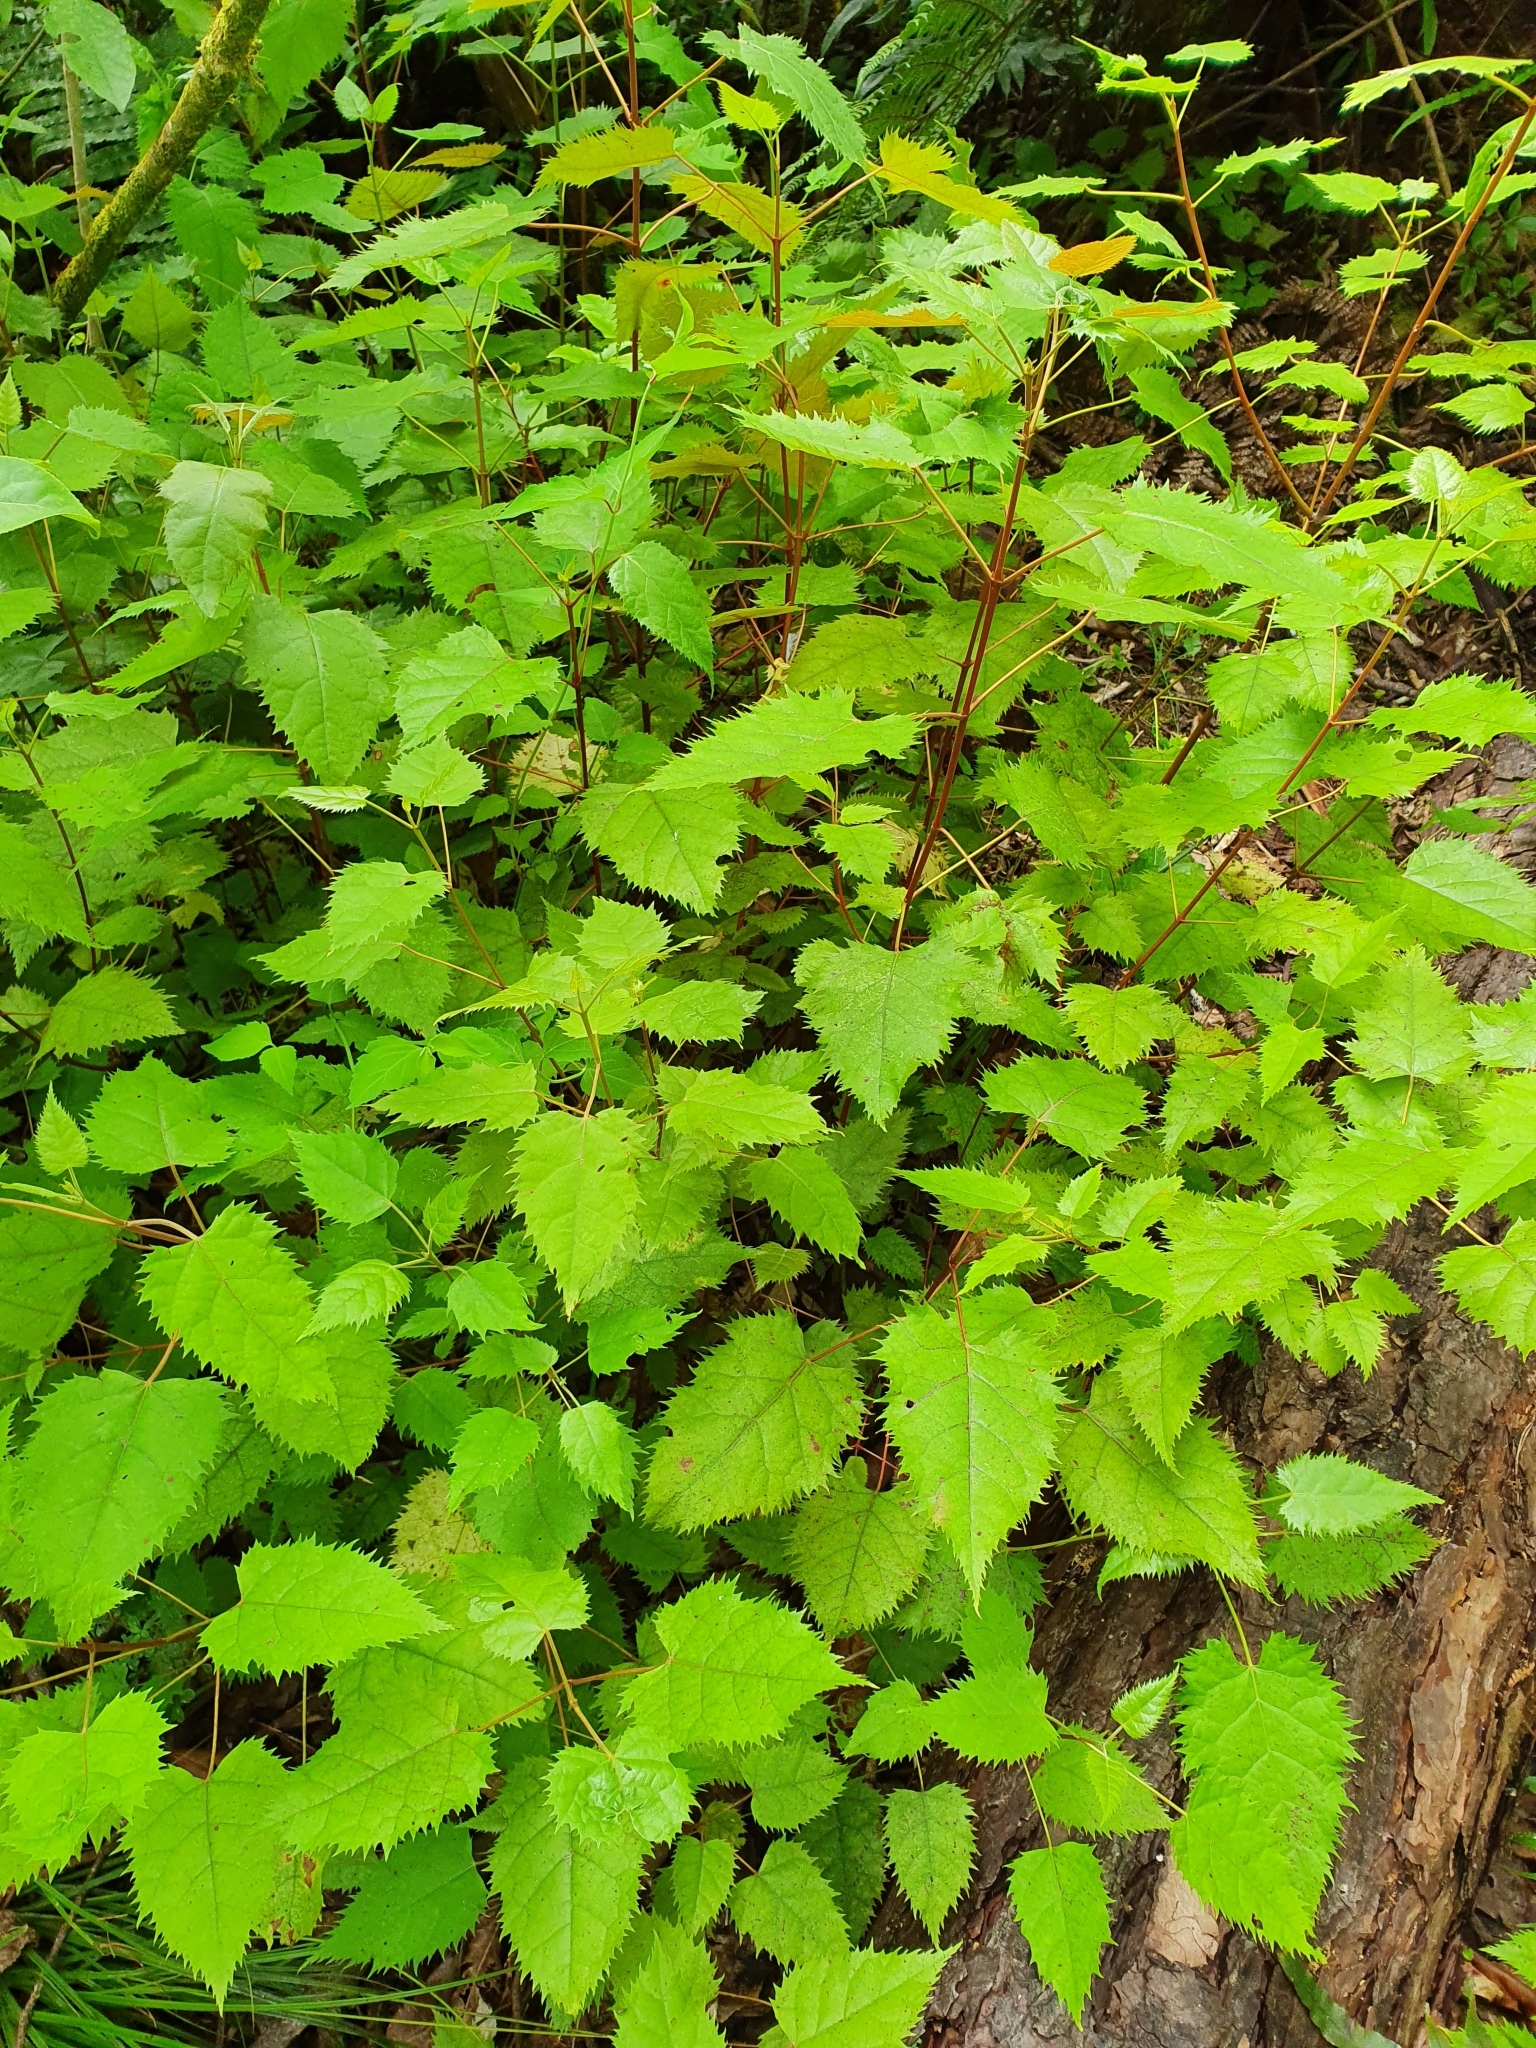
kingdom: Plantae
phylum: Tracheophyta
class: Magnoliopsida
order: Oxalidales
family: Elaeocarpaceae
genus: Aristotelia
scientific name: Aristotelia serrata
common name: New zealand wineberry
